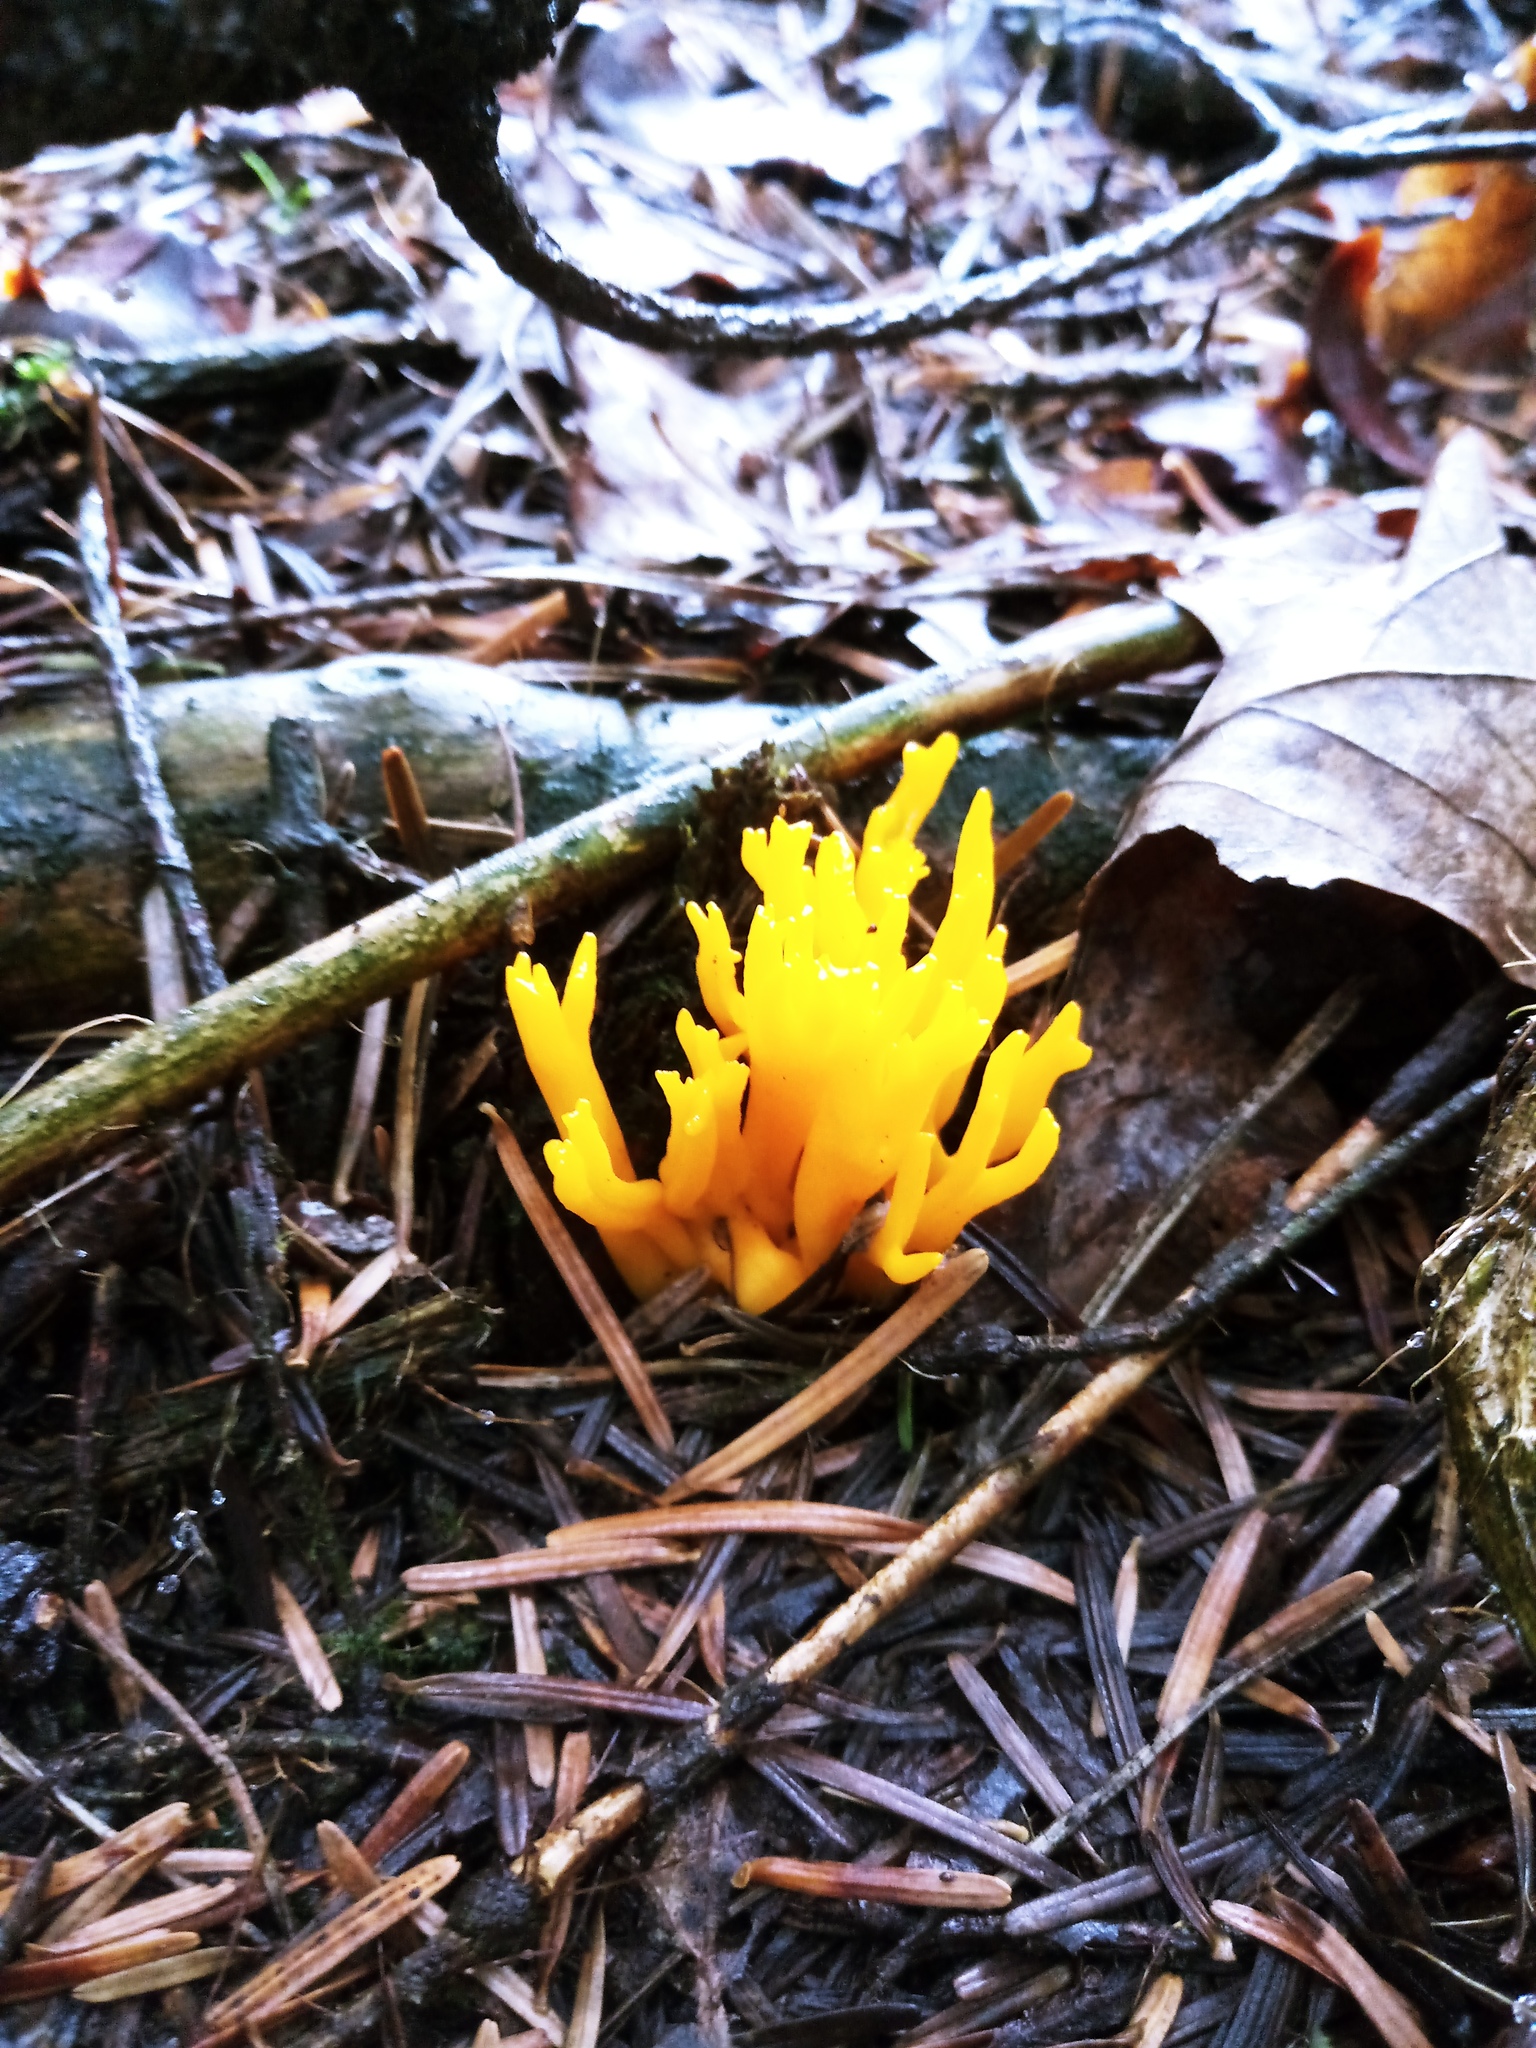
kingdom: Fungi
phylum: Basidiomycota
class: Dacrymycetes
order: Dacrymycetales
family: Dacrymycetaceae
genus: Calocera
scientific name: Calocera viscosa
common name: Yellow stagshorn
